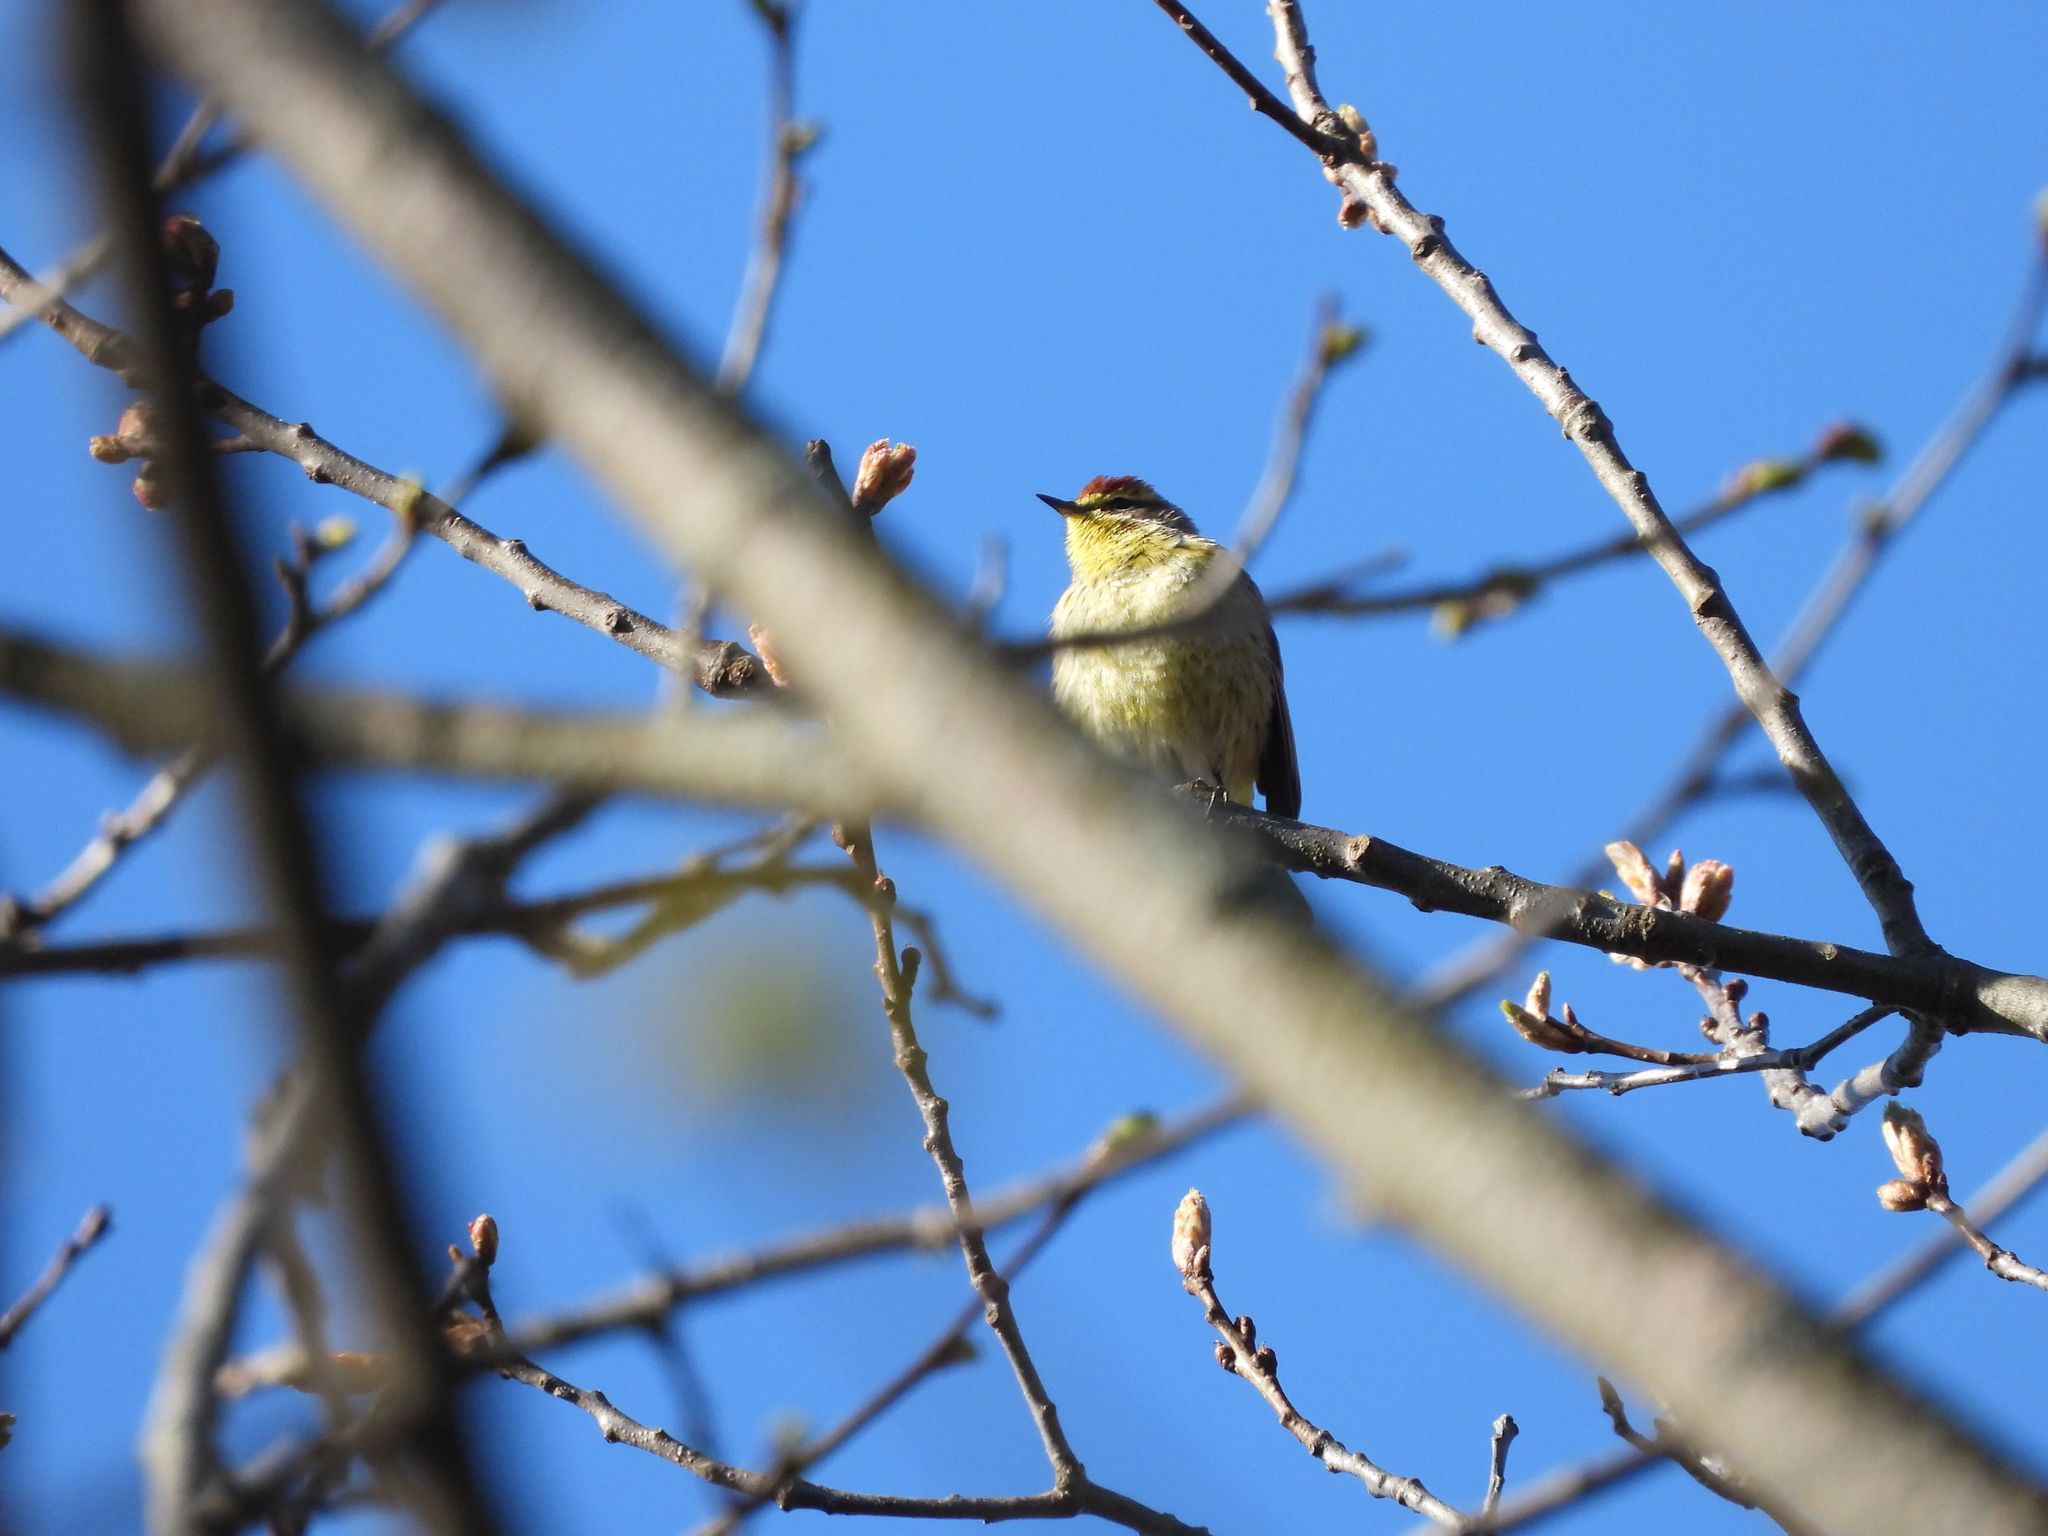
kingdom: Animalia
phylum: Chordata
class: Aves
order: Passeriformes
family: Parulidae
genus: Setophaga
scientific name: Setophaga palmarum
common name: Palm warbler
